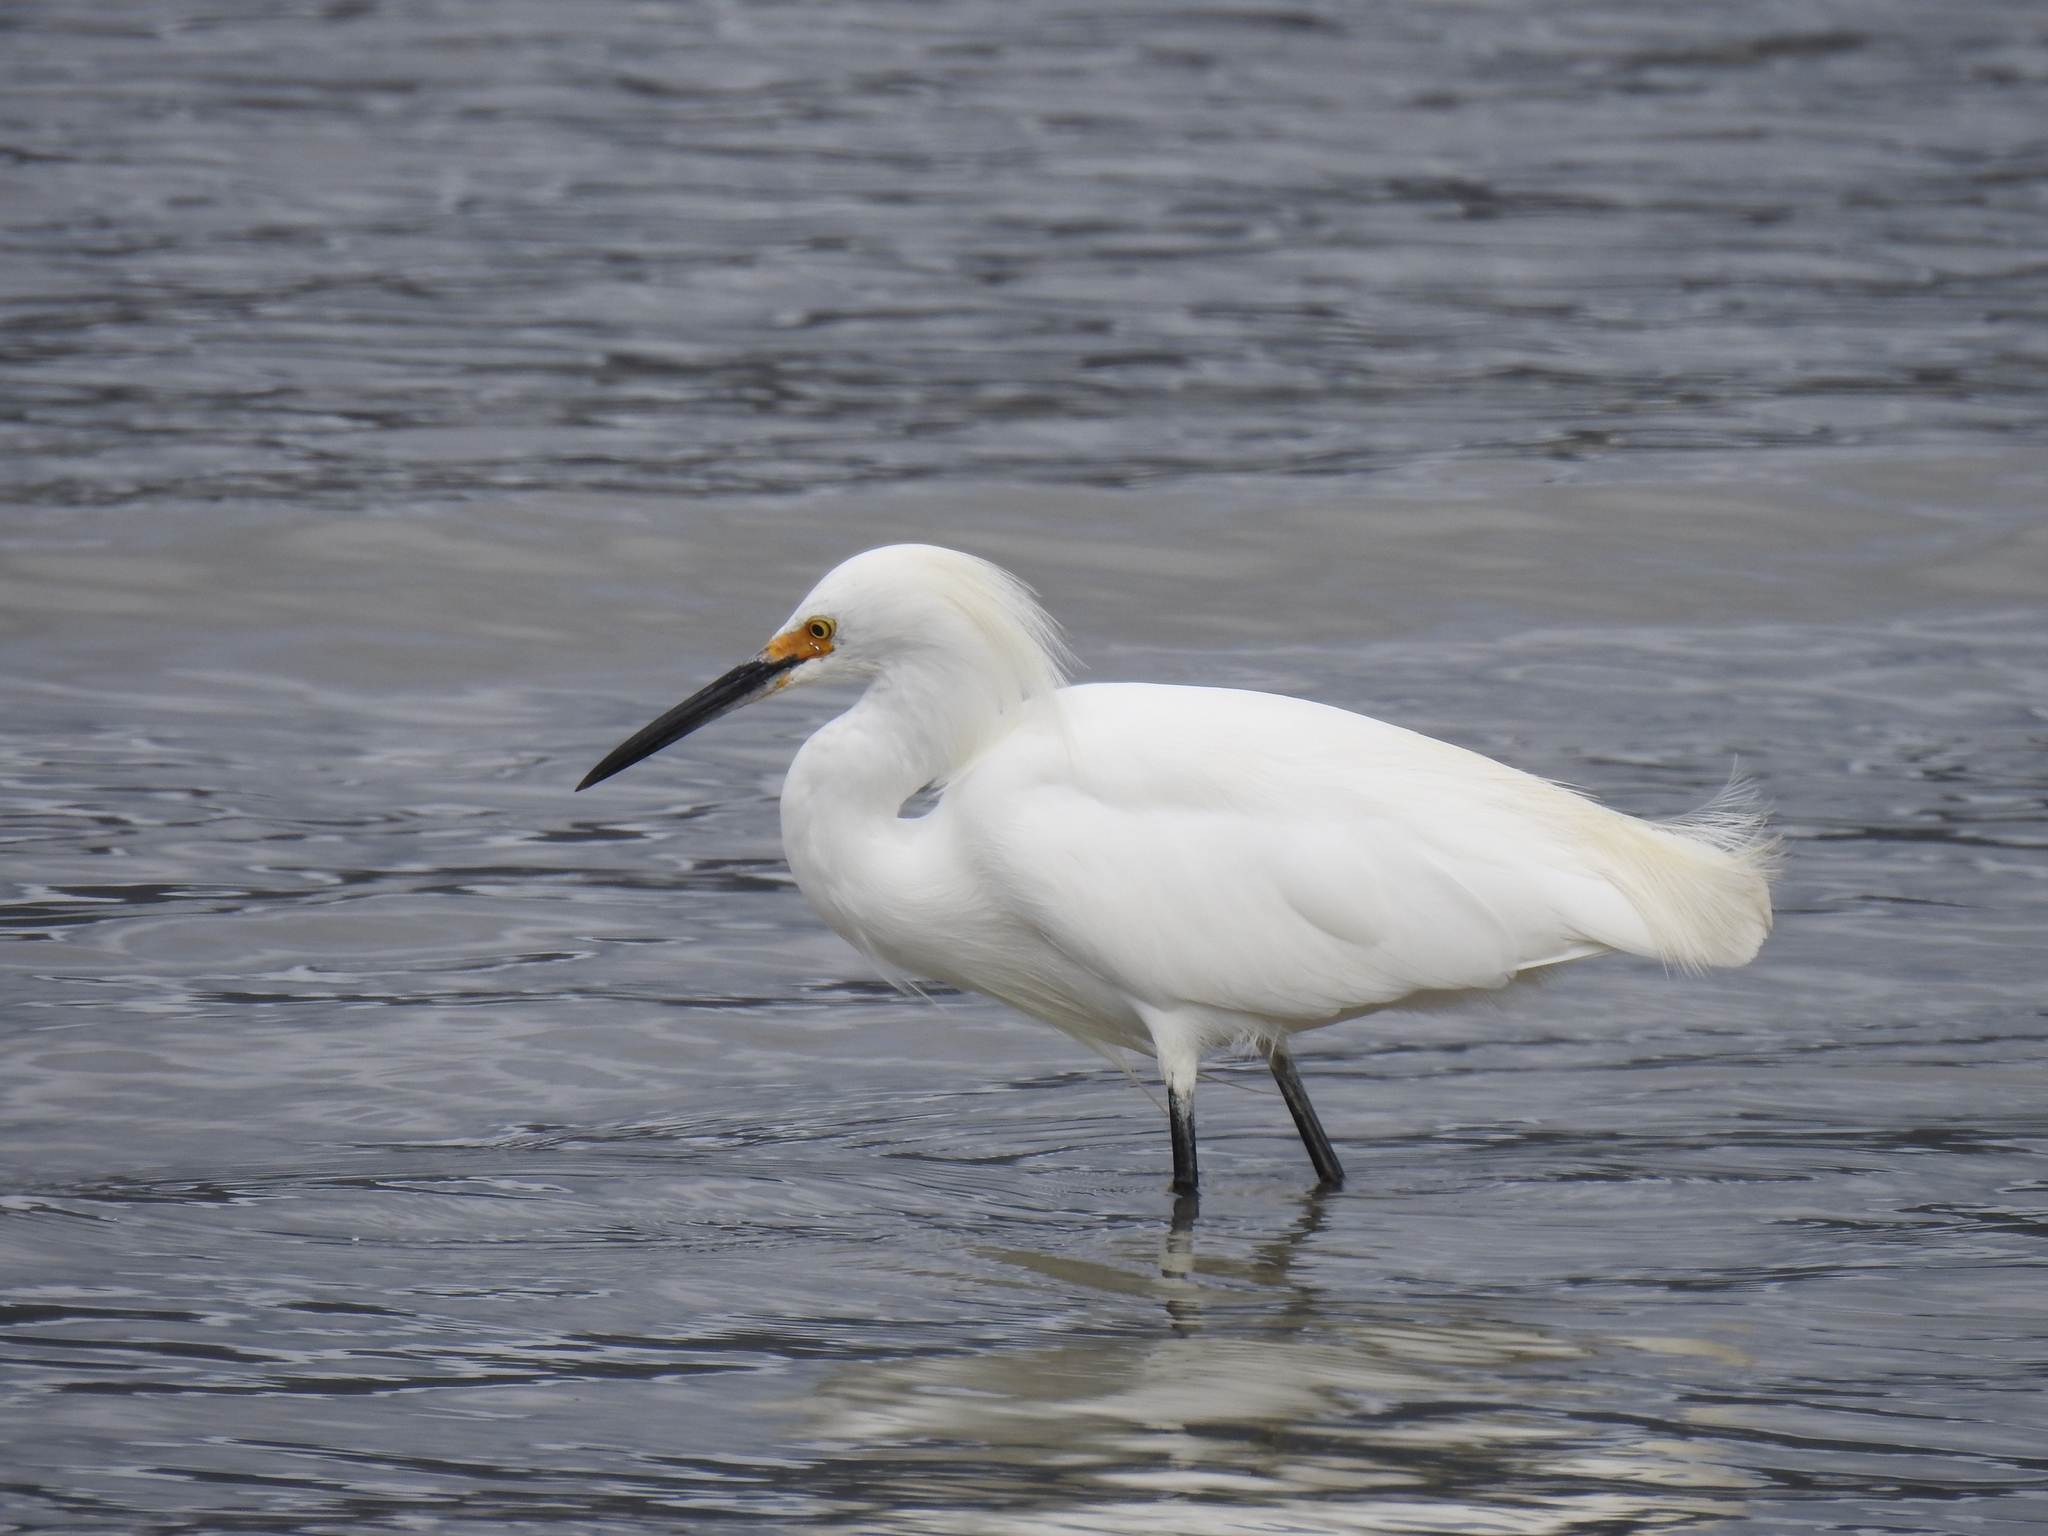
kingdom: Animalia
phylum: Chordata
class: Aves
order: Pelecaniformes
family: Ardeidae
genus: Egretta
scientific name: Egretta thula
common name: Snowy egret
